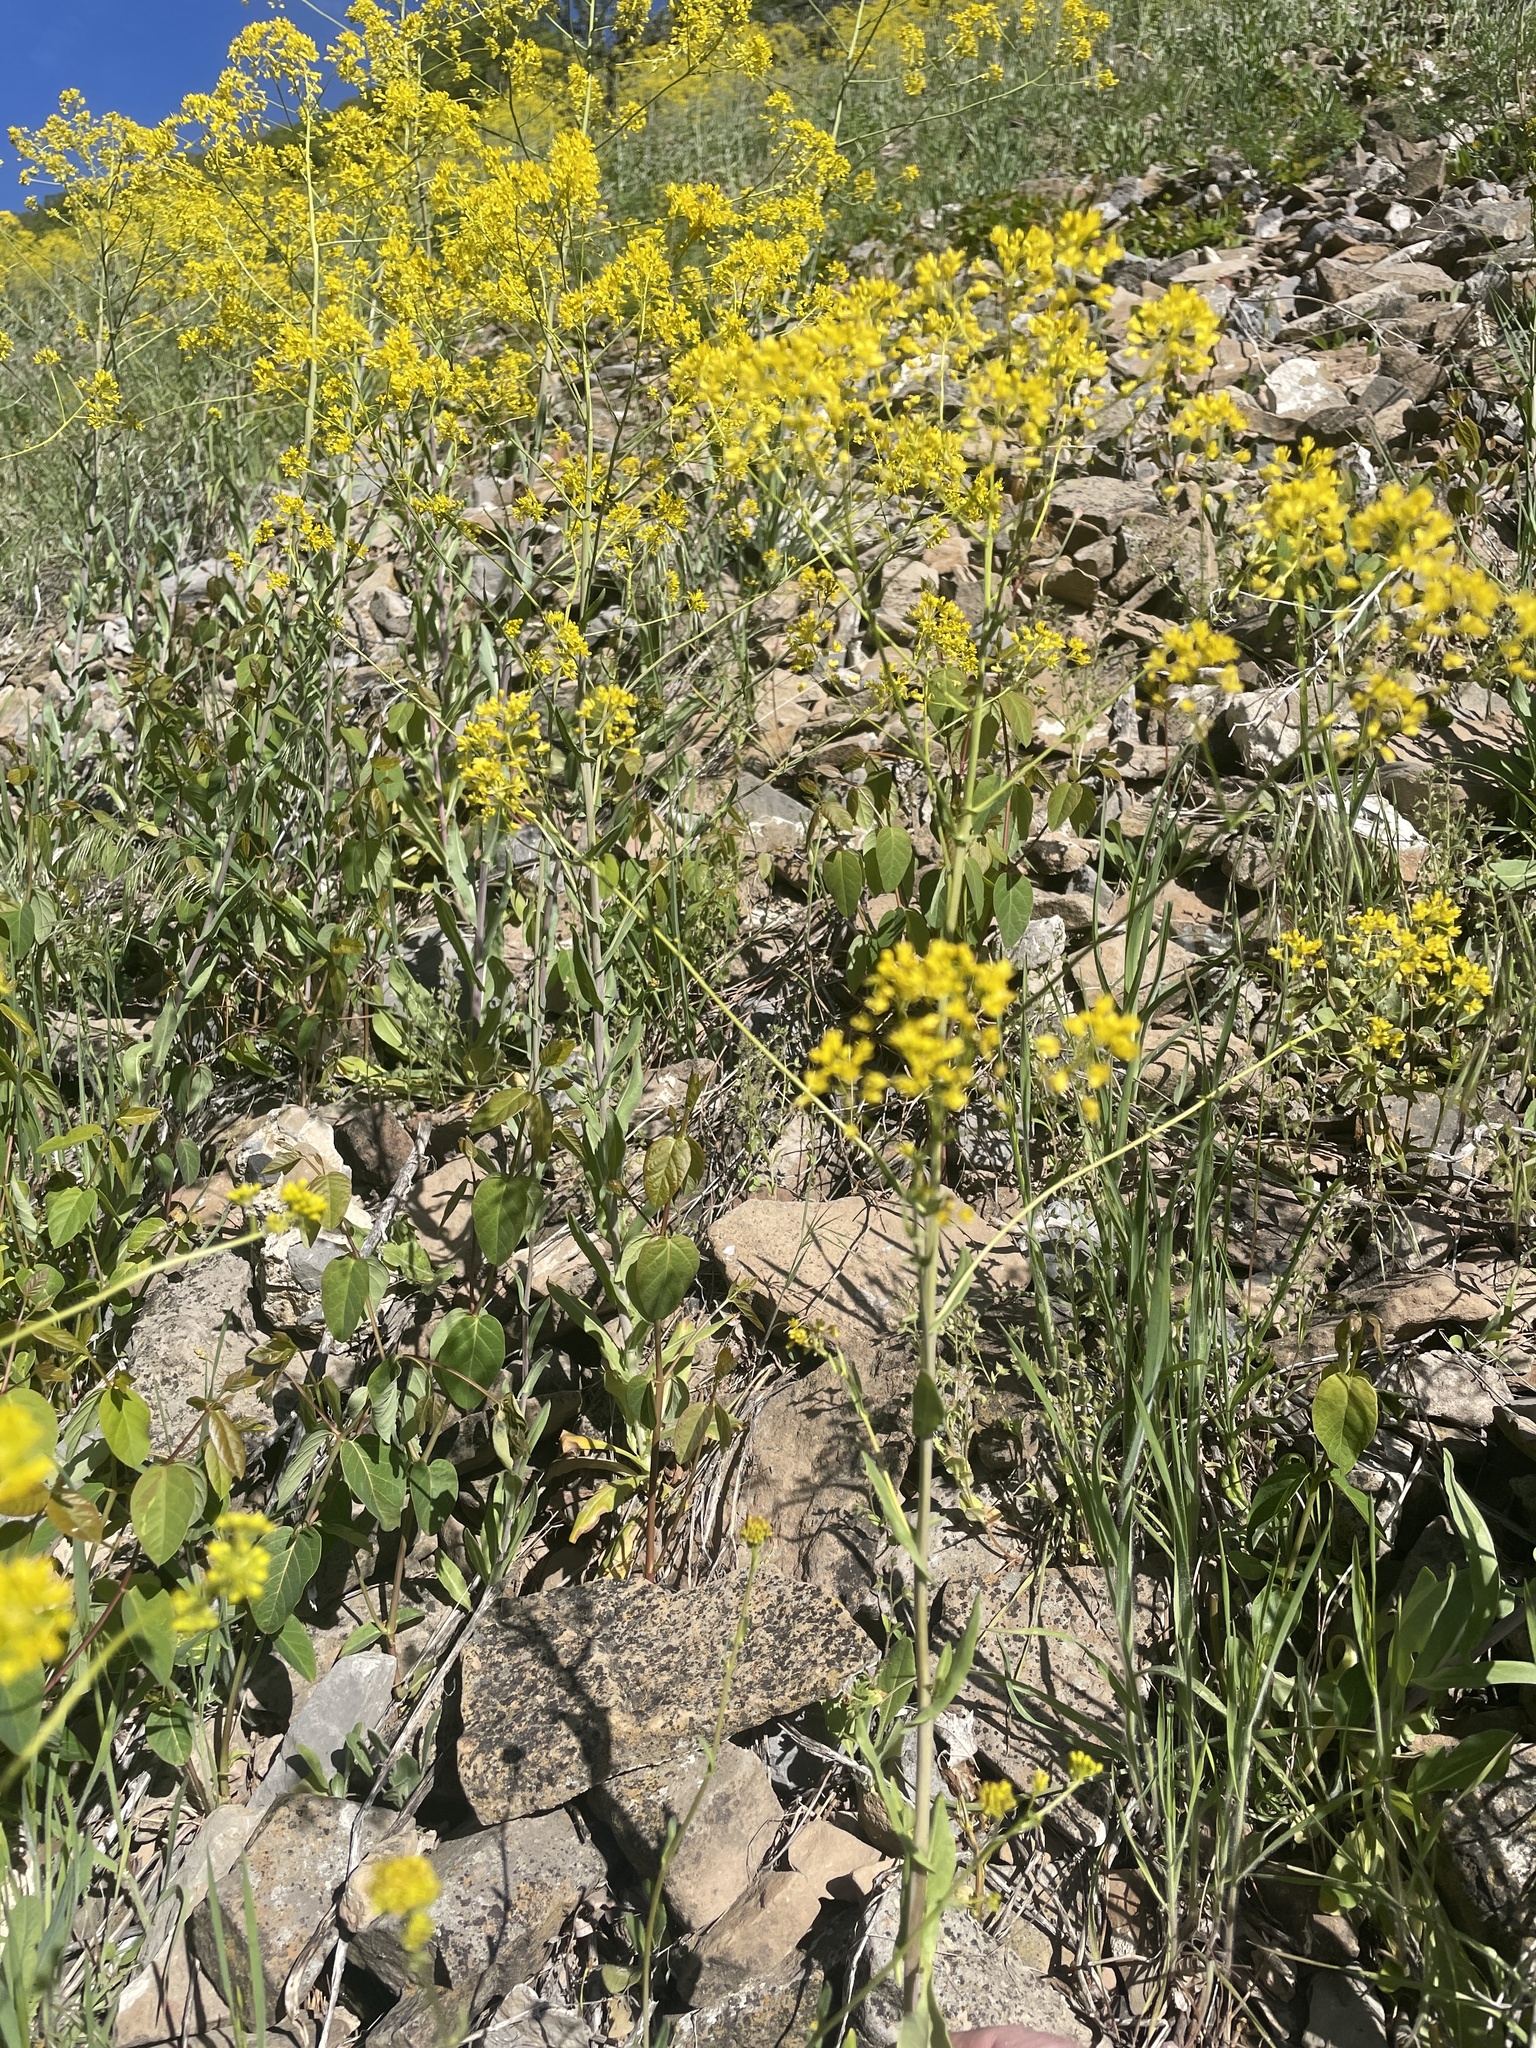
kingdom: Plantae
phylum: Tracheophyta
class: Magnoliopsida
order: Brassicales
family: Brassicaceae
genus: Isatis
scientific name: Isatis tinctoria
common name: Woad
